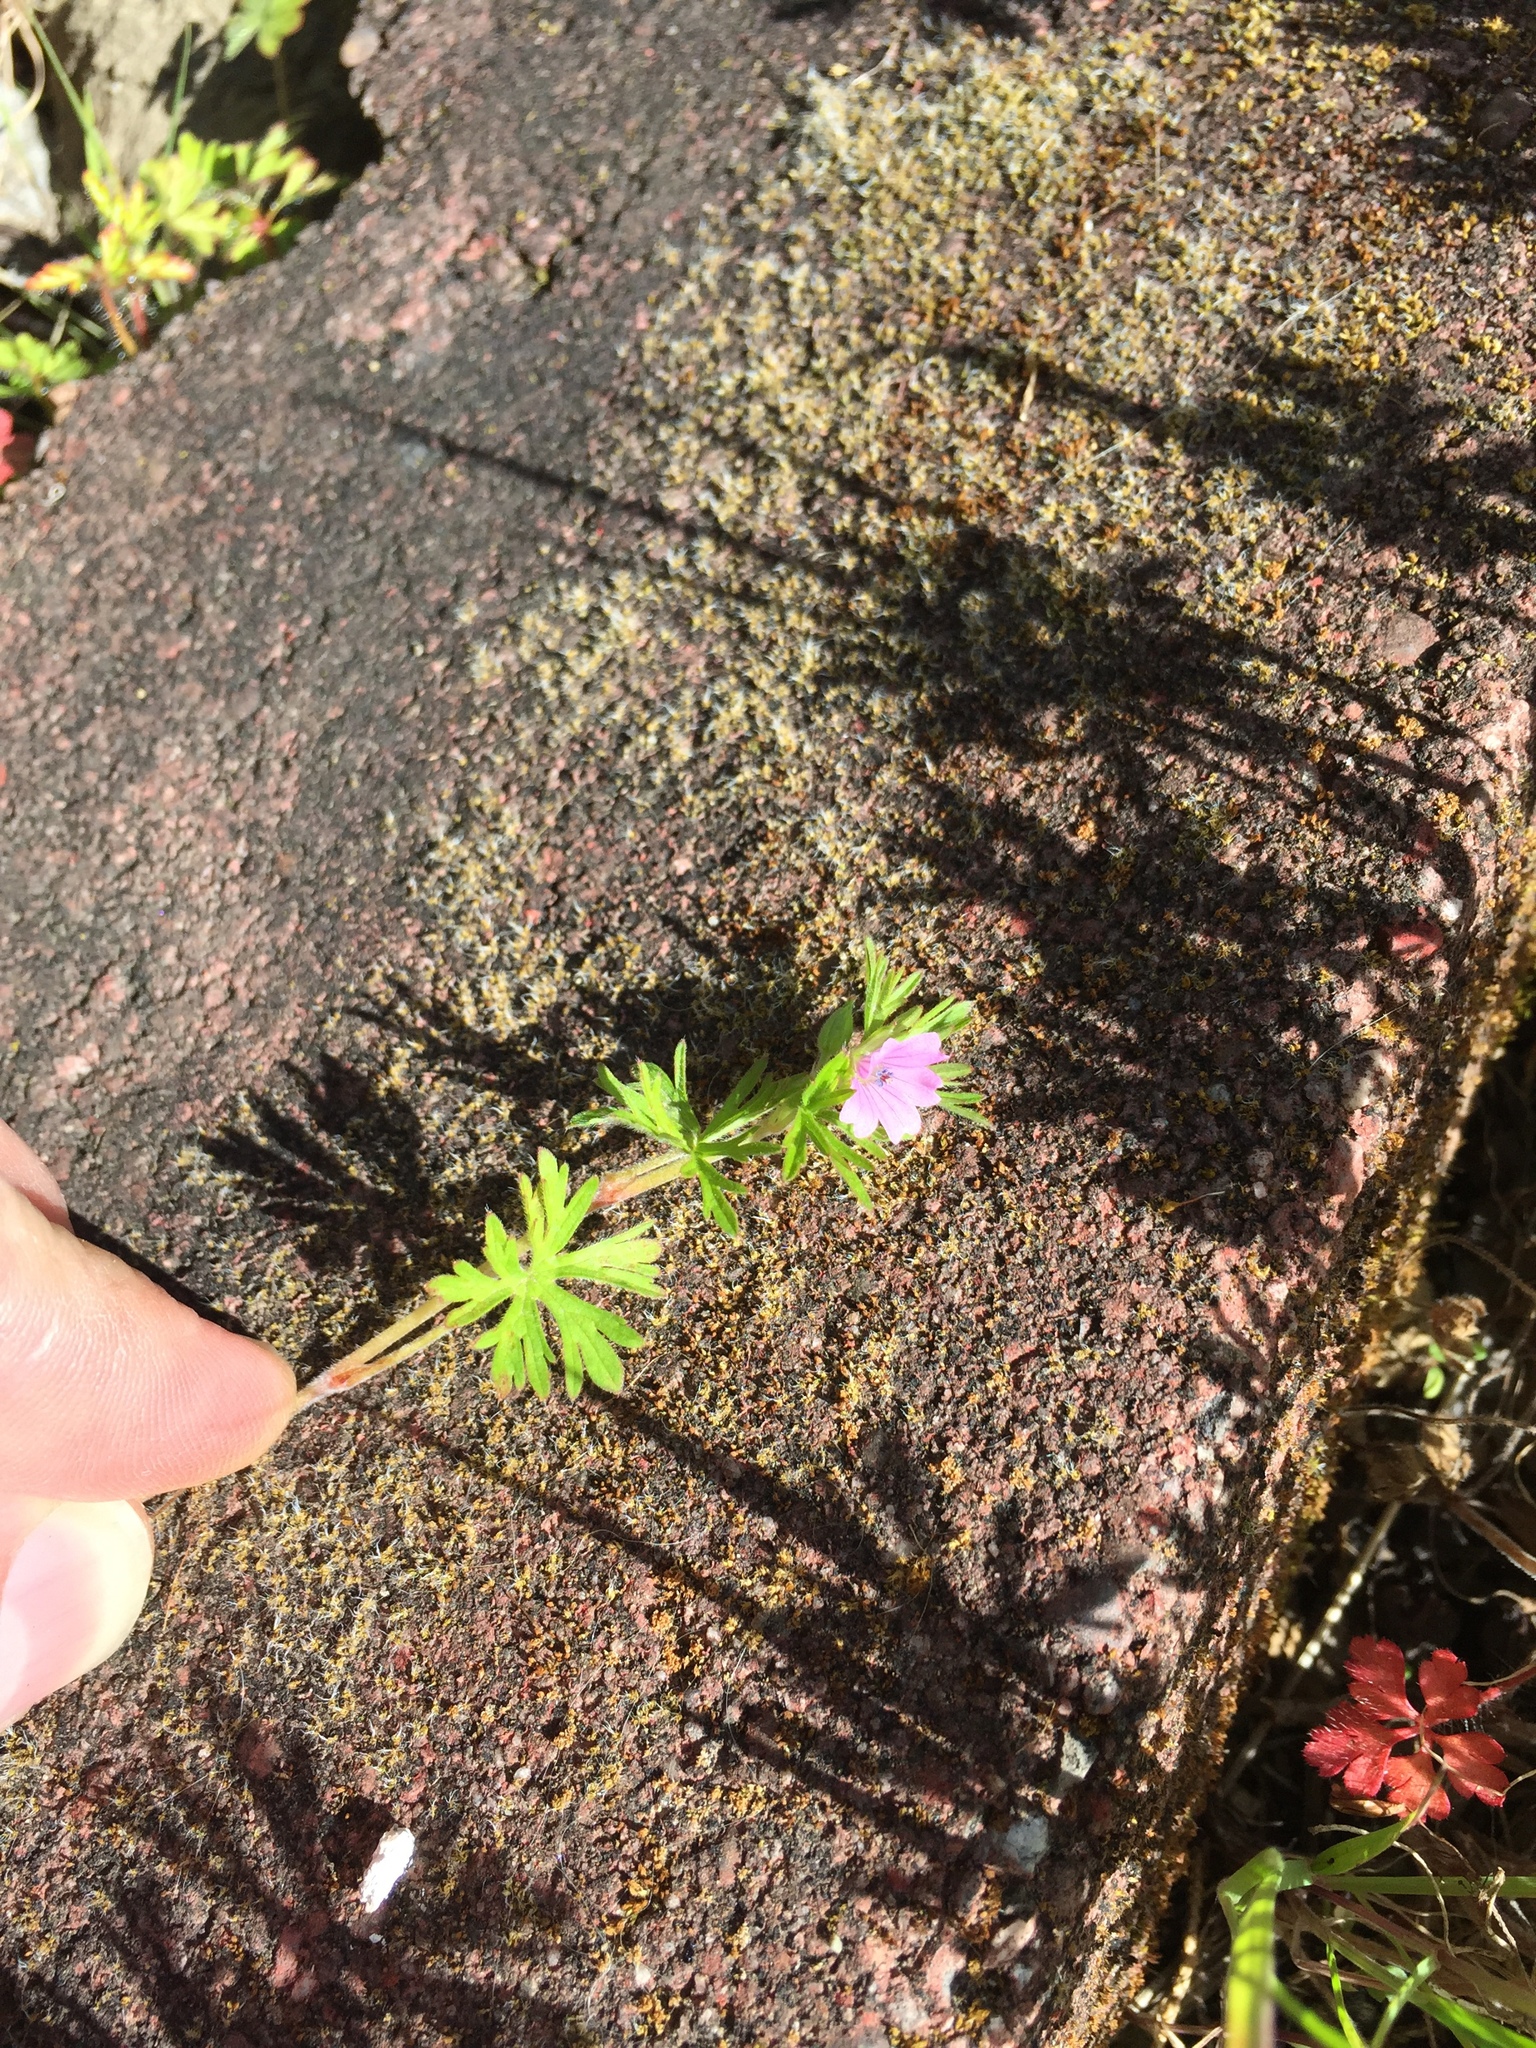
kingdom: Plantae
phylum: Tracheophyta
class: Magnoliopsida
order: Geraniales
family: Geraniaceae
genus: Geranium
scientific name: Geranium dissectum
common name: Cut-leaved crane's-bill
